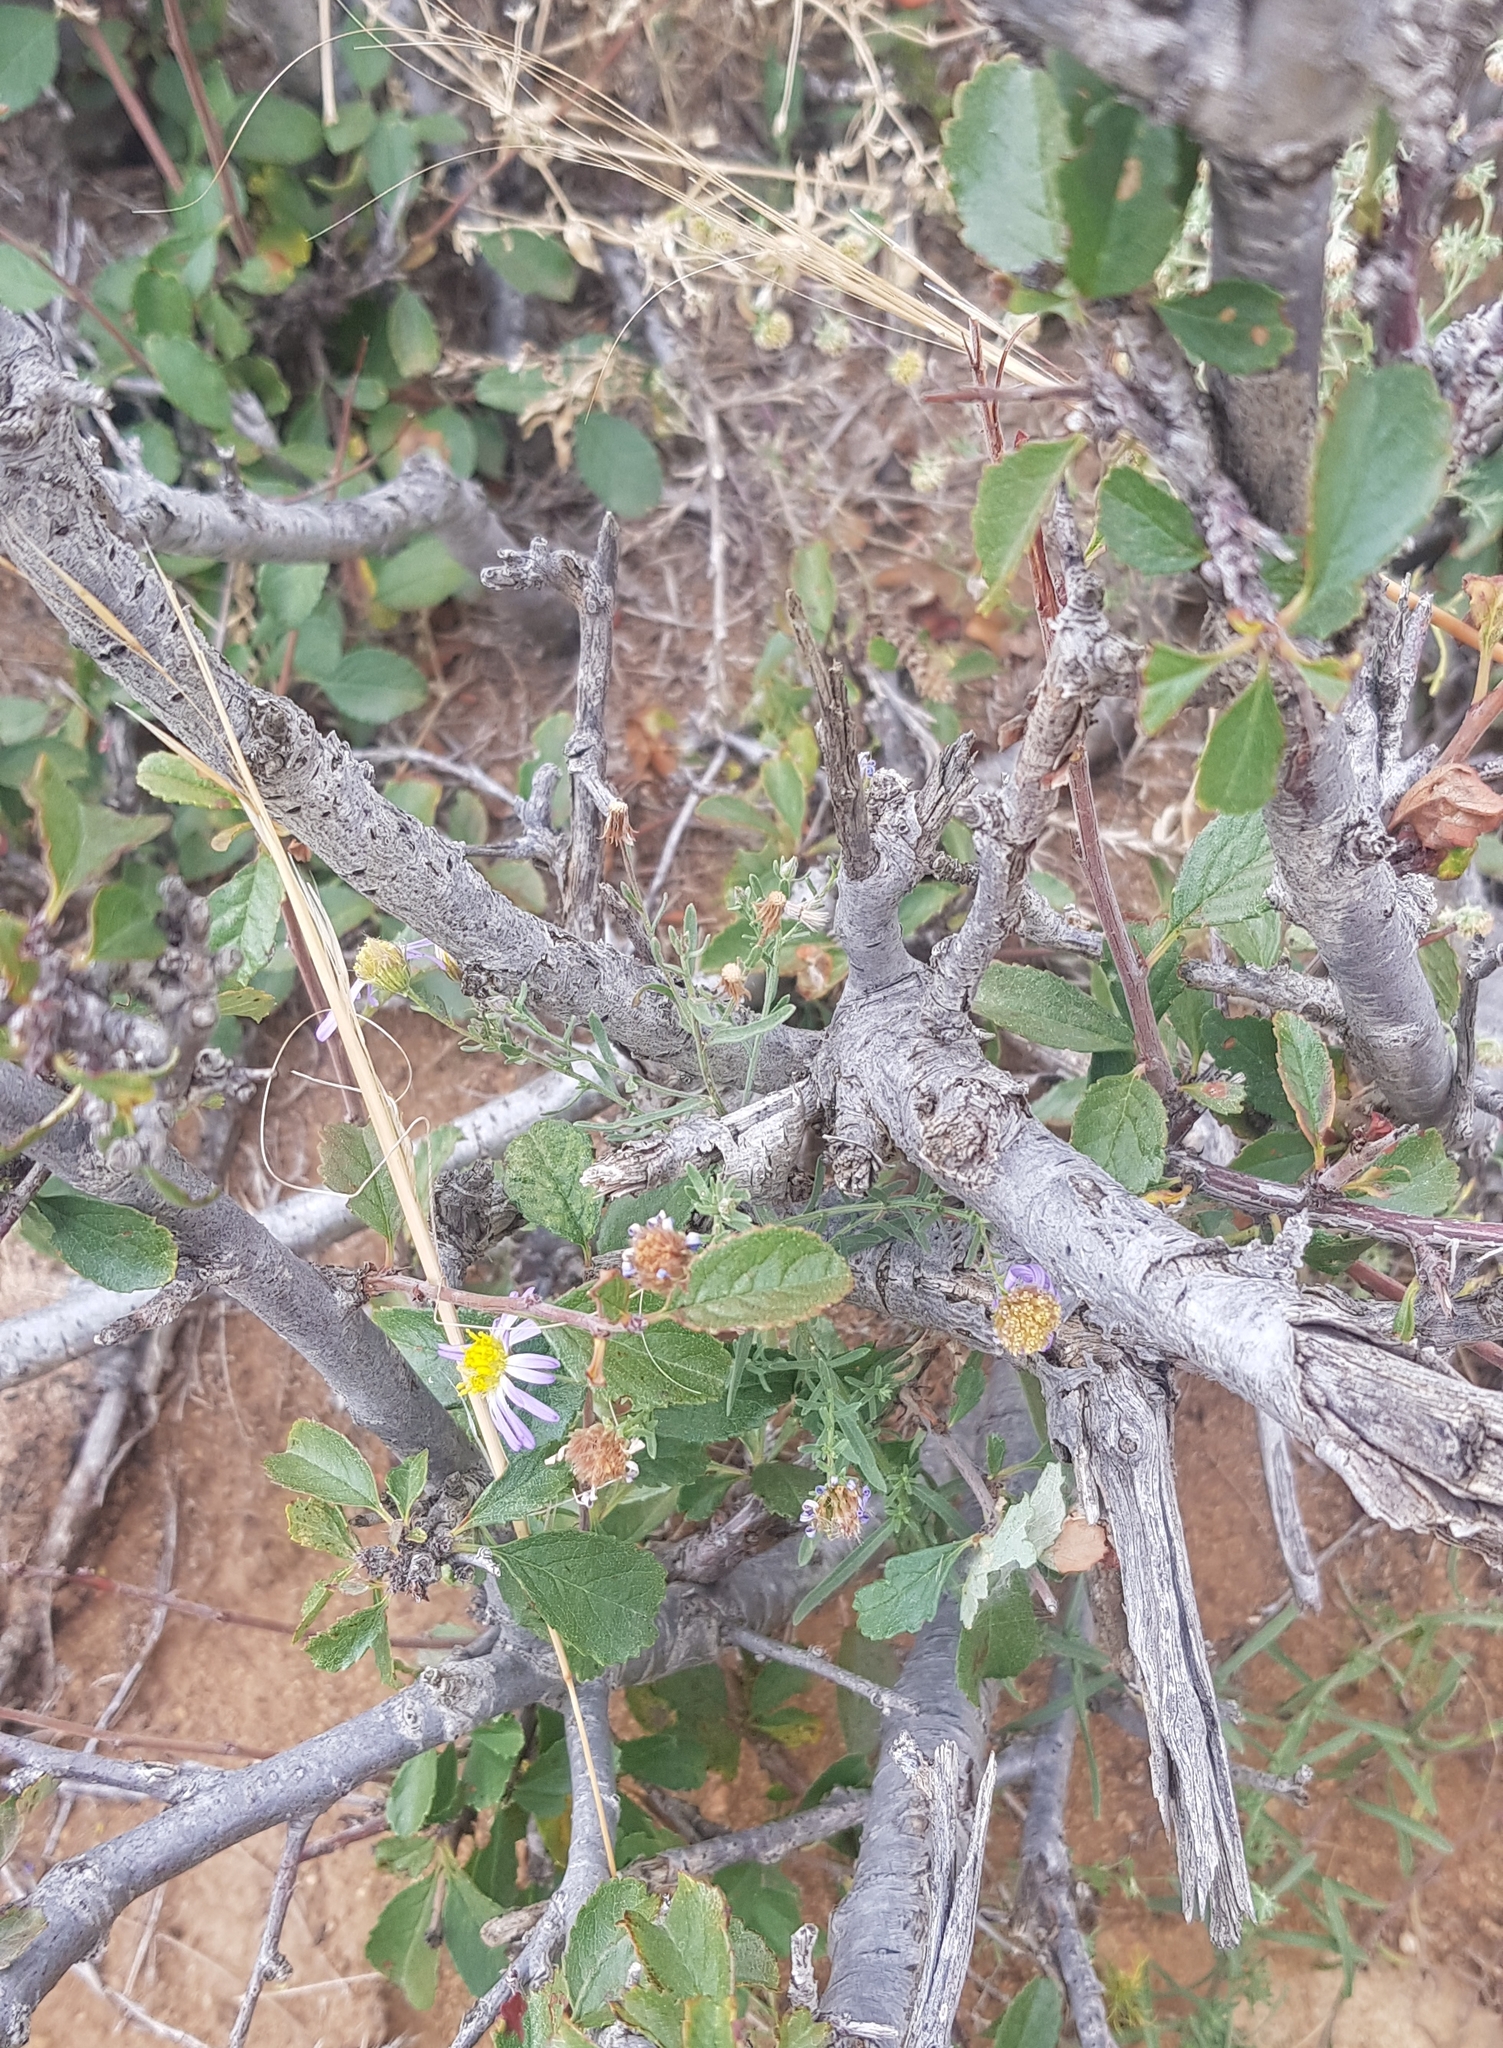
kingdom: Plantae
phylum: Tracheophyta
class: Magnoliopsida
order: Rosales
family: Rosaceae
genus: Prunus
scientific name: Prunus pedunculata
